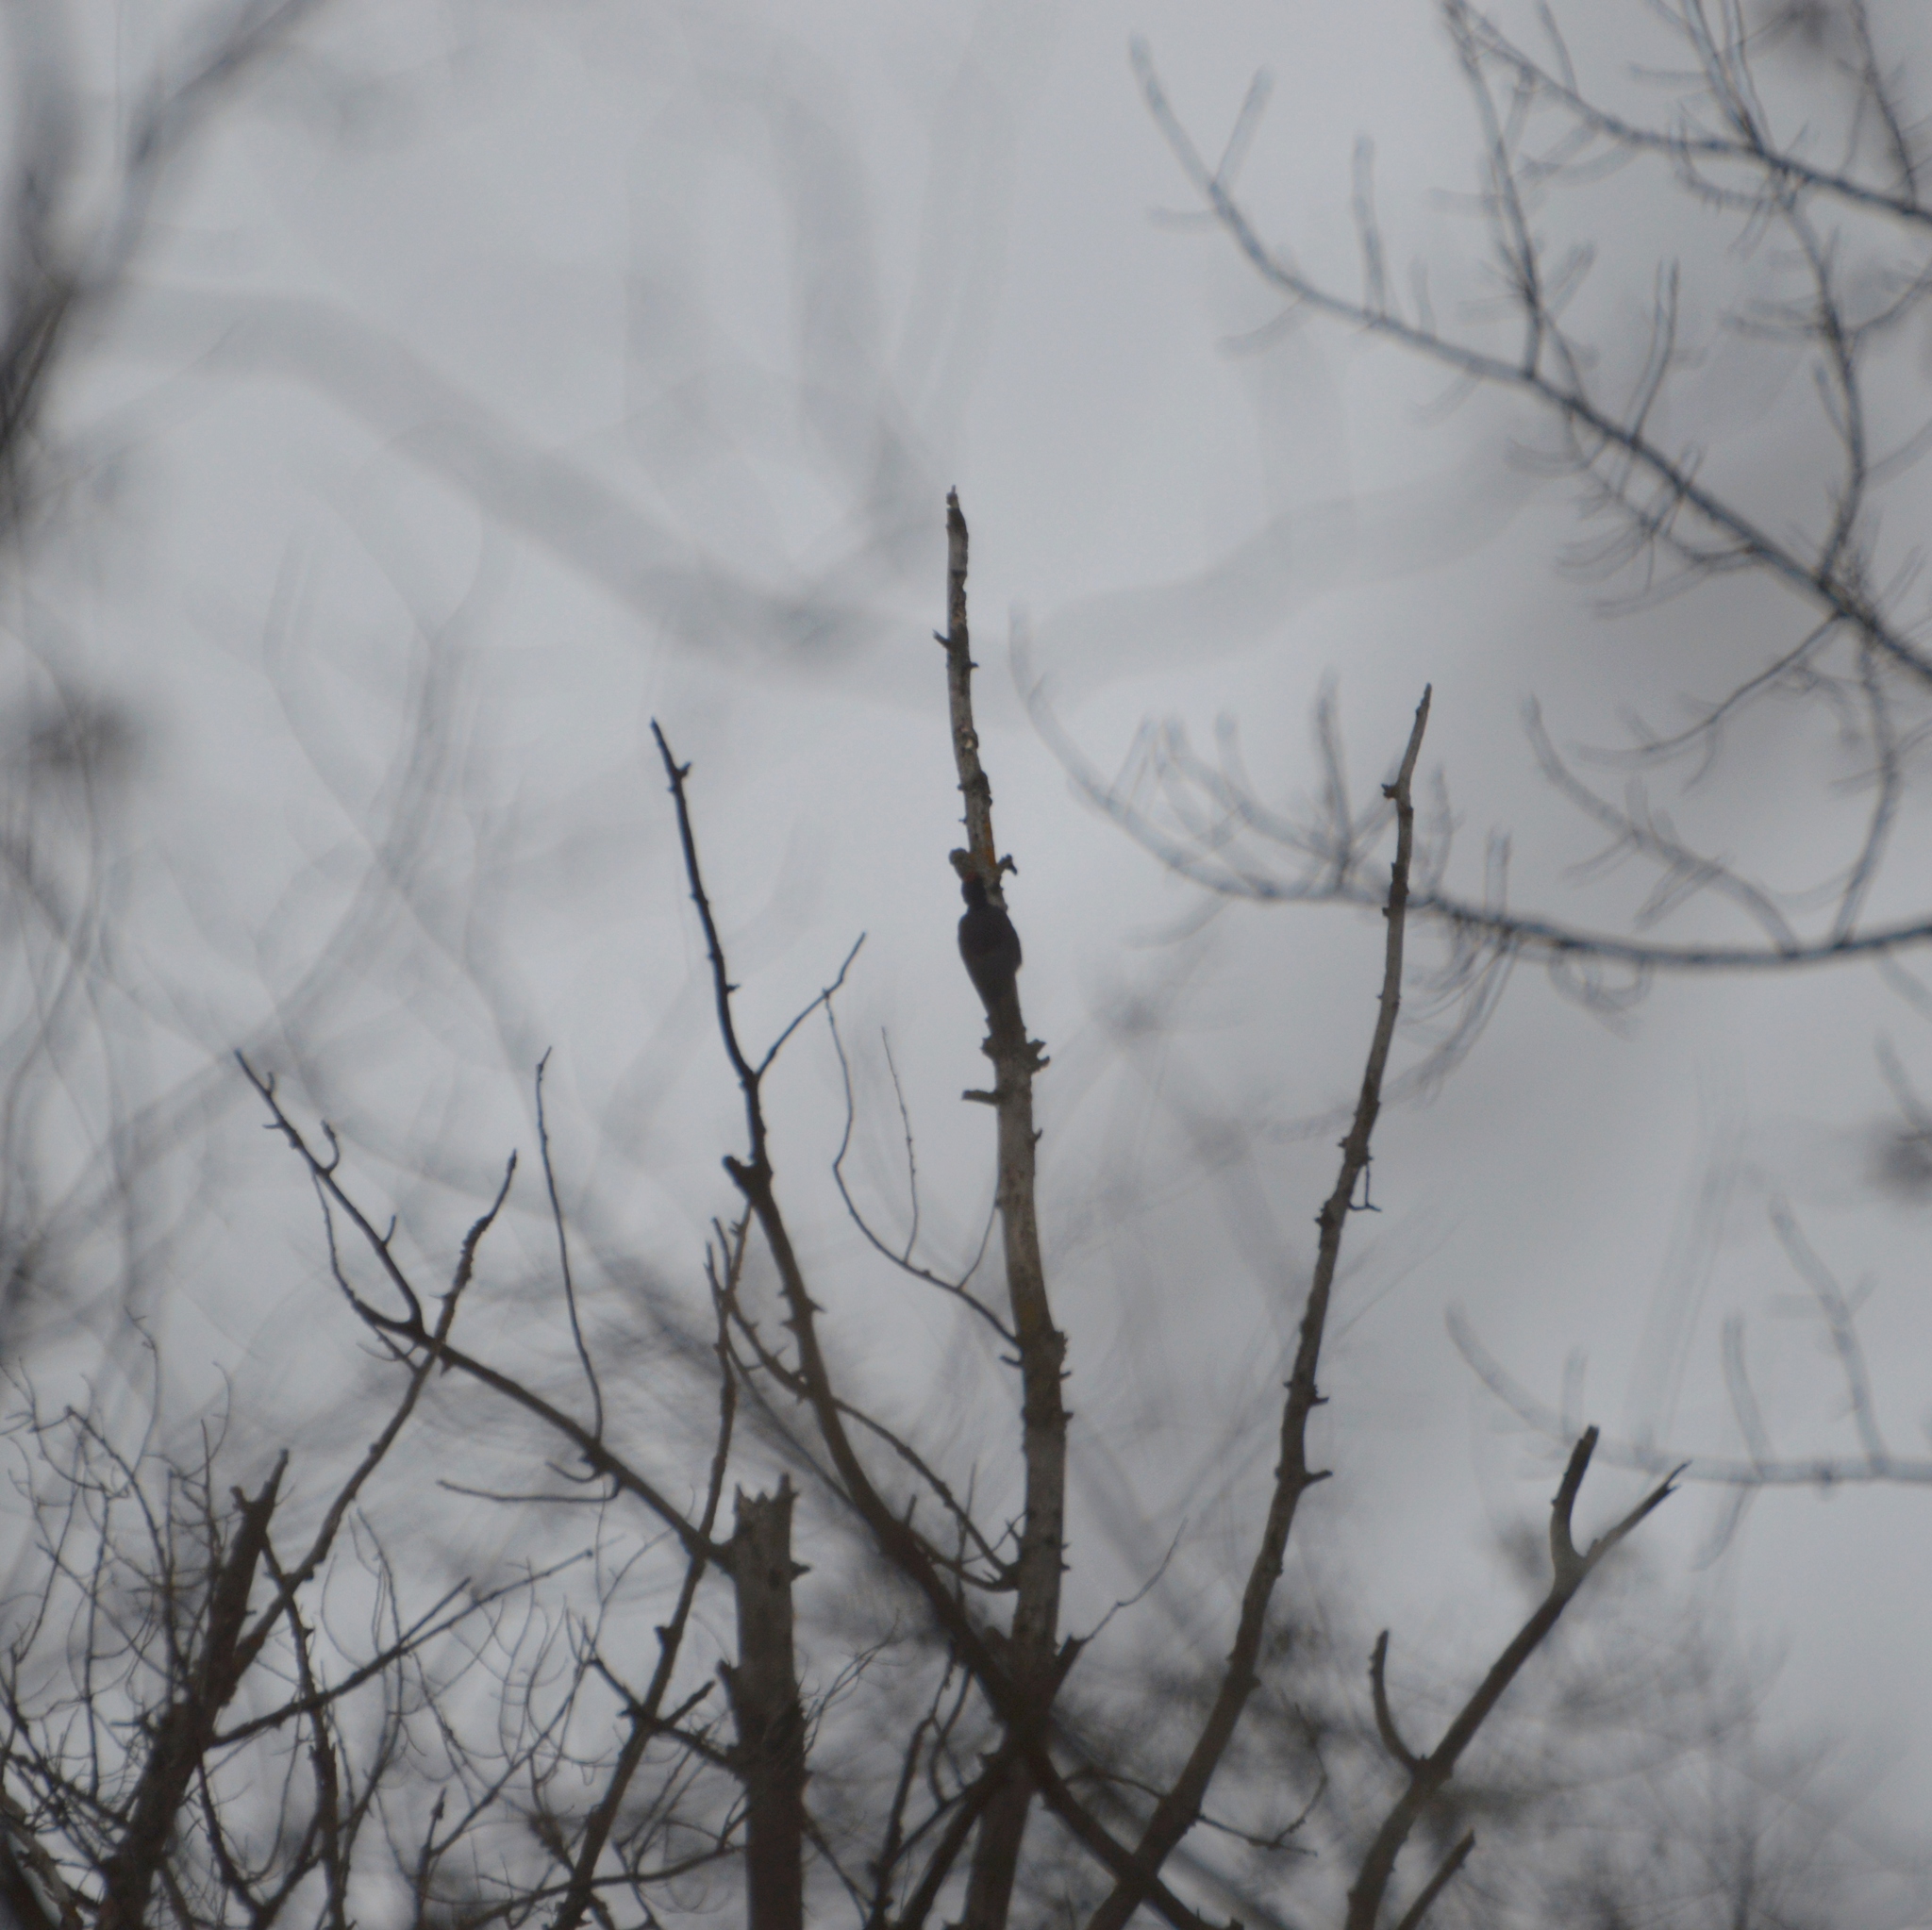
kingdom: Animalia
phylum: Chordata
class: Aves
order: Piciformes
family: Picidae
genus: Dryocopus
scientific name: Dryocopus martius
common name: Black woodpecker
